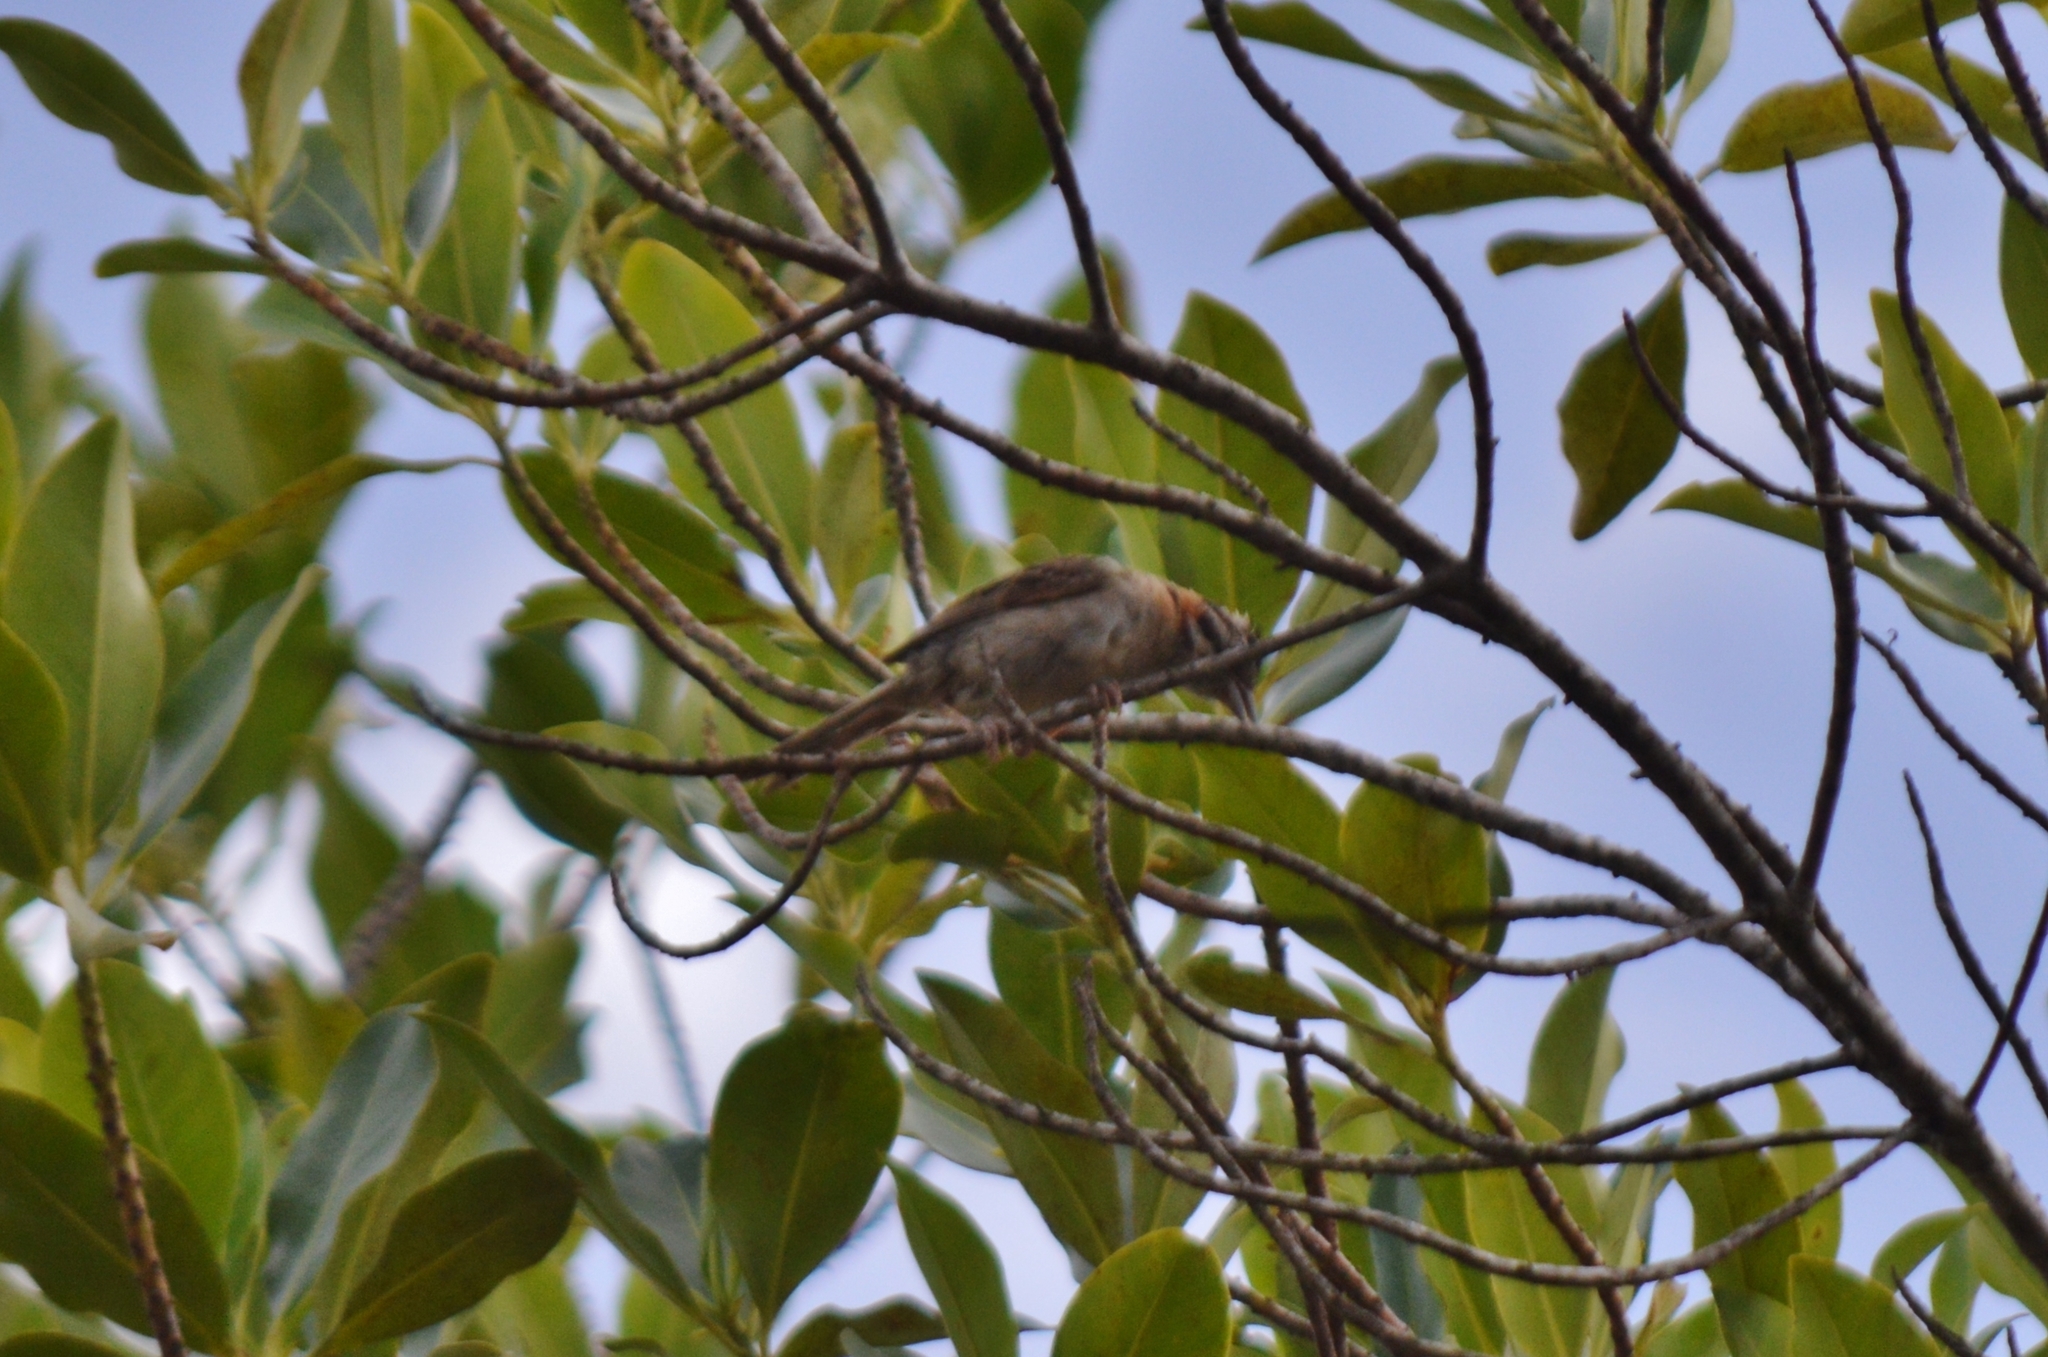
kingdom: Animalia
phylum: Chordata
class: Aves
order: Passeriformes
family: Passerellidae
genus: Zonotrichia
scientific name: Zonotrichia capensis
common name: Rufous-collared sparrow
